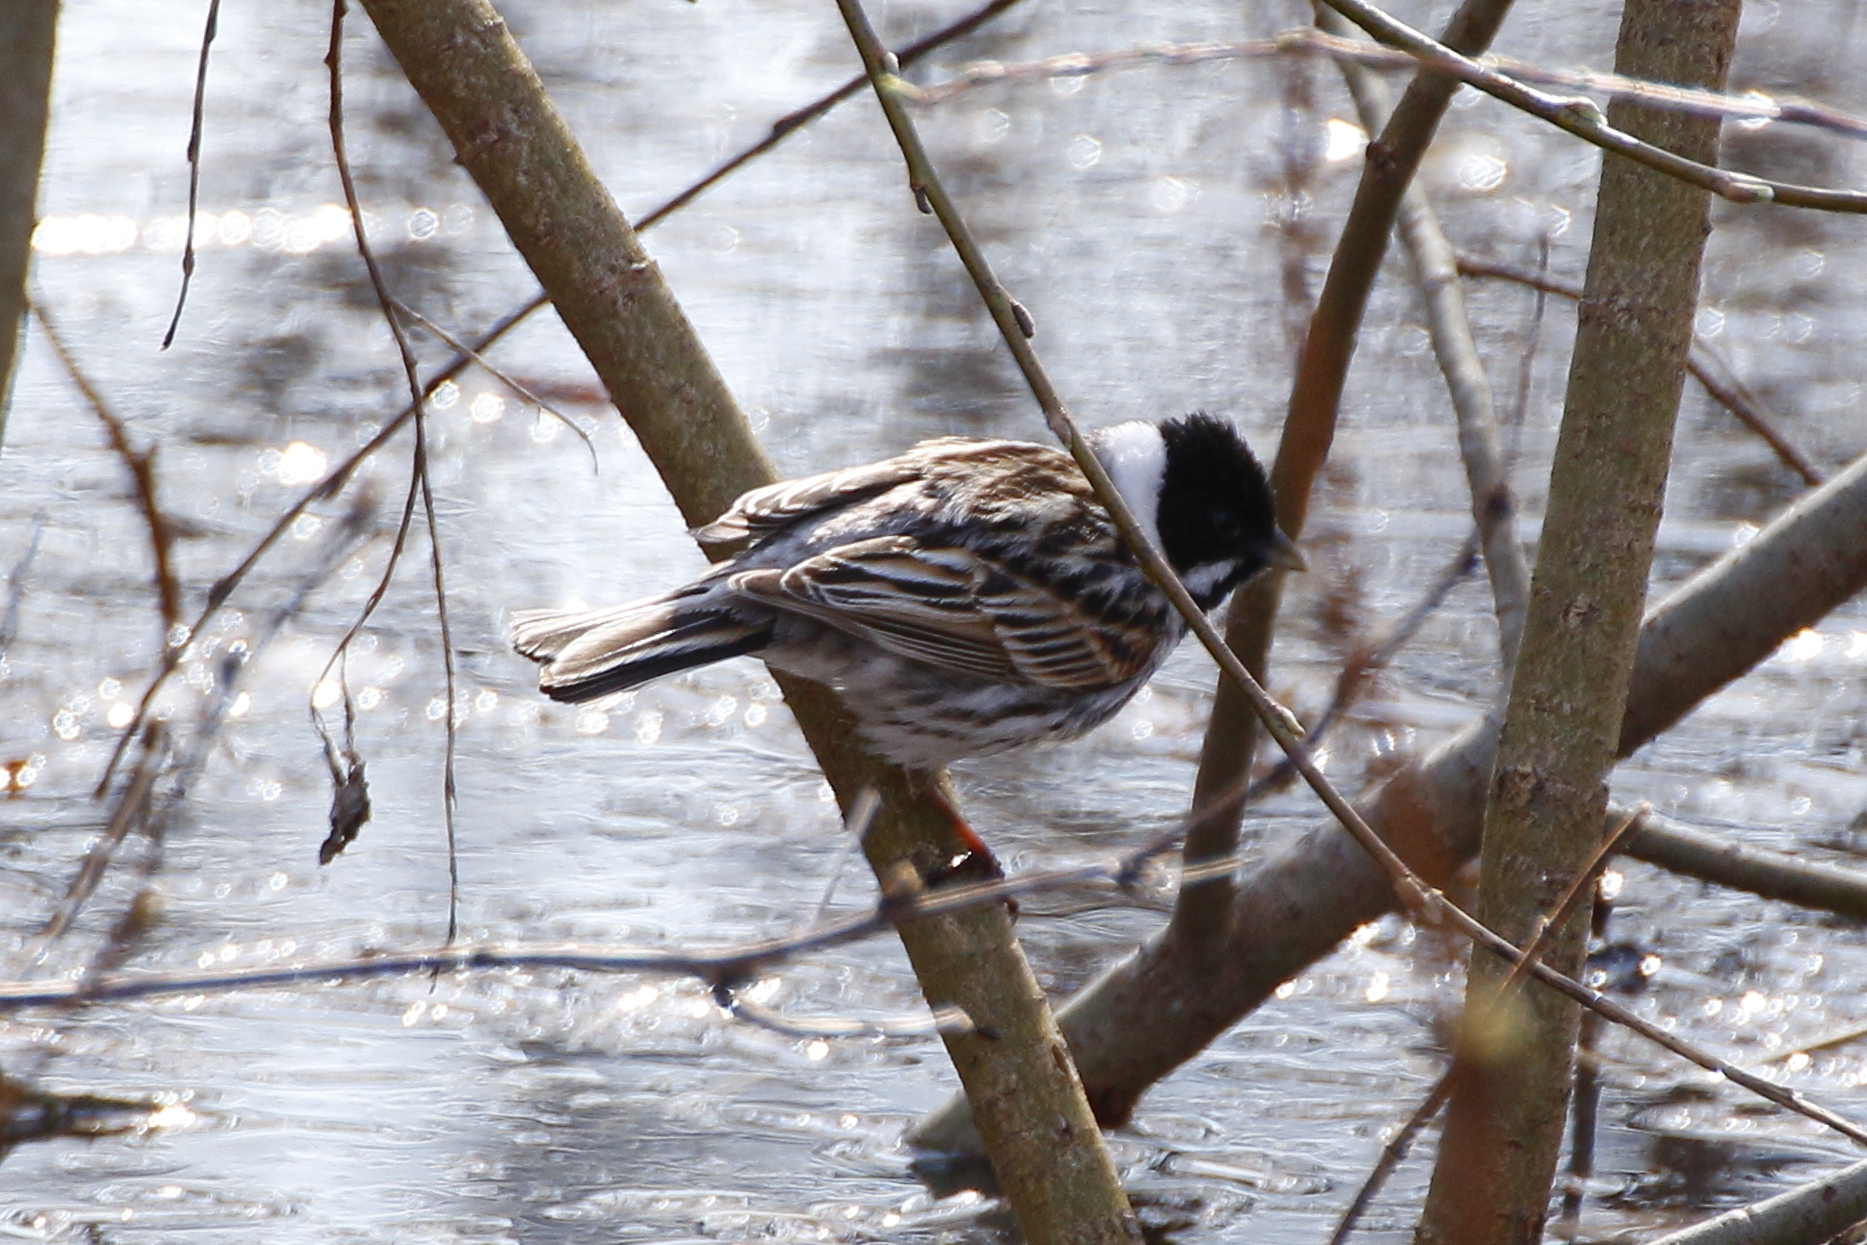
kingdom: Animalia
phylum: Chordata
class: Aves
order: Passeriformes
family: Emberizidae
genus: Emberiza
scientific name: Emberiza schoeniclus
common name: Reed bunting
